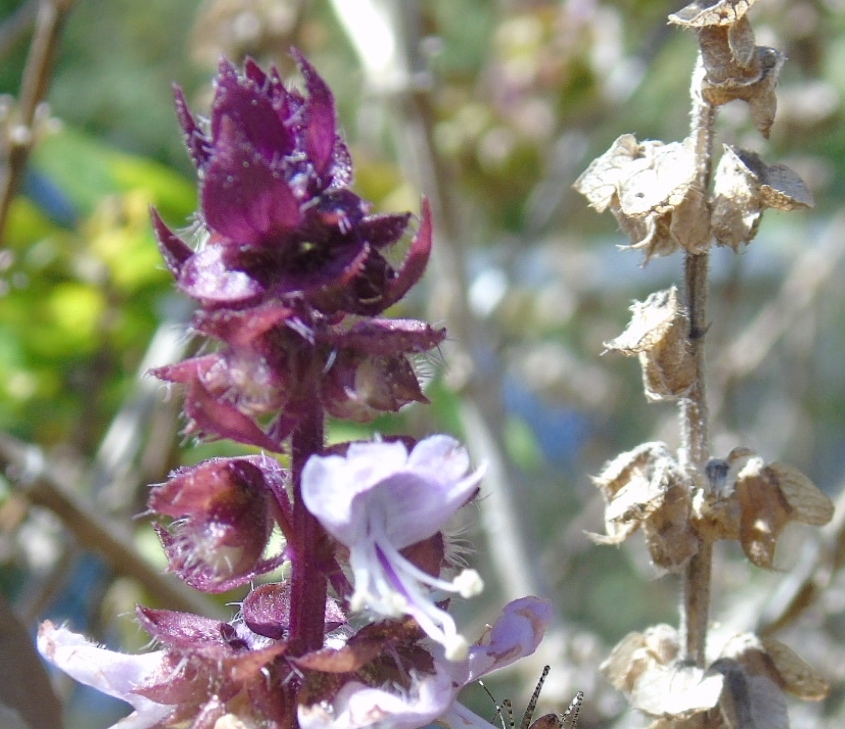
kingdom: Plantae
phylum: Tracheophyta
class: Magnoliopsida
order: Lamiales
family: Lamiaceae
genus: Ocimum
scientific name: Ocimum campechianum
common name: Mosquito basil
